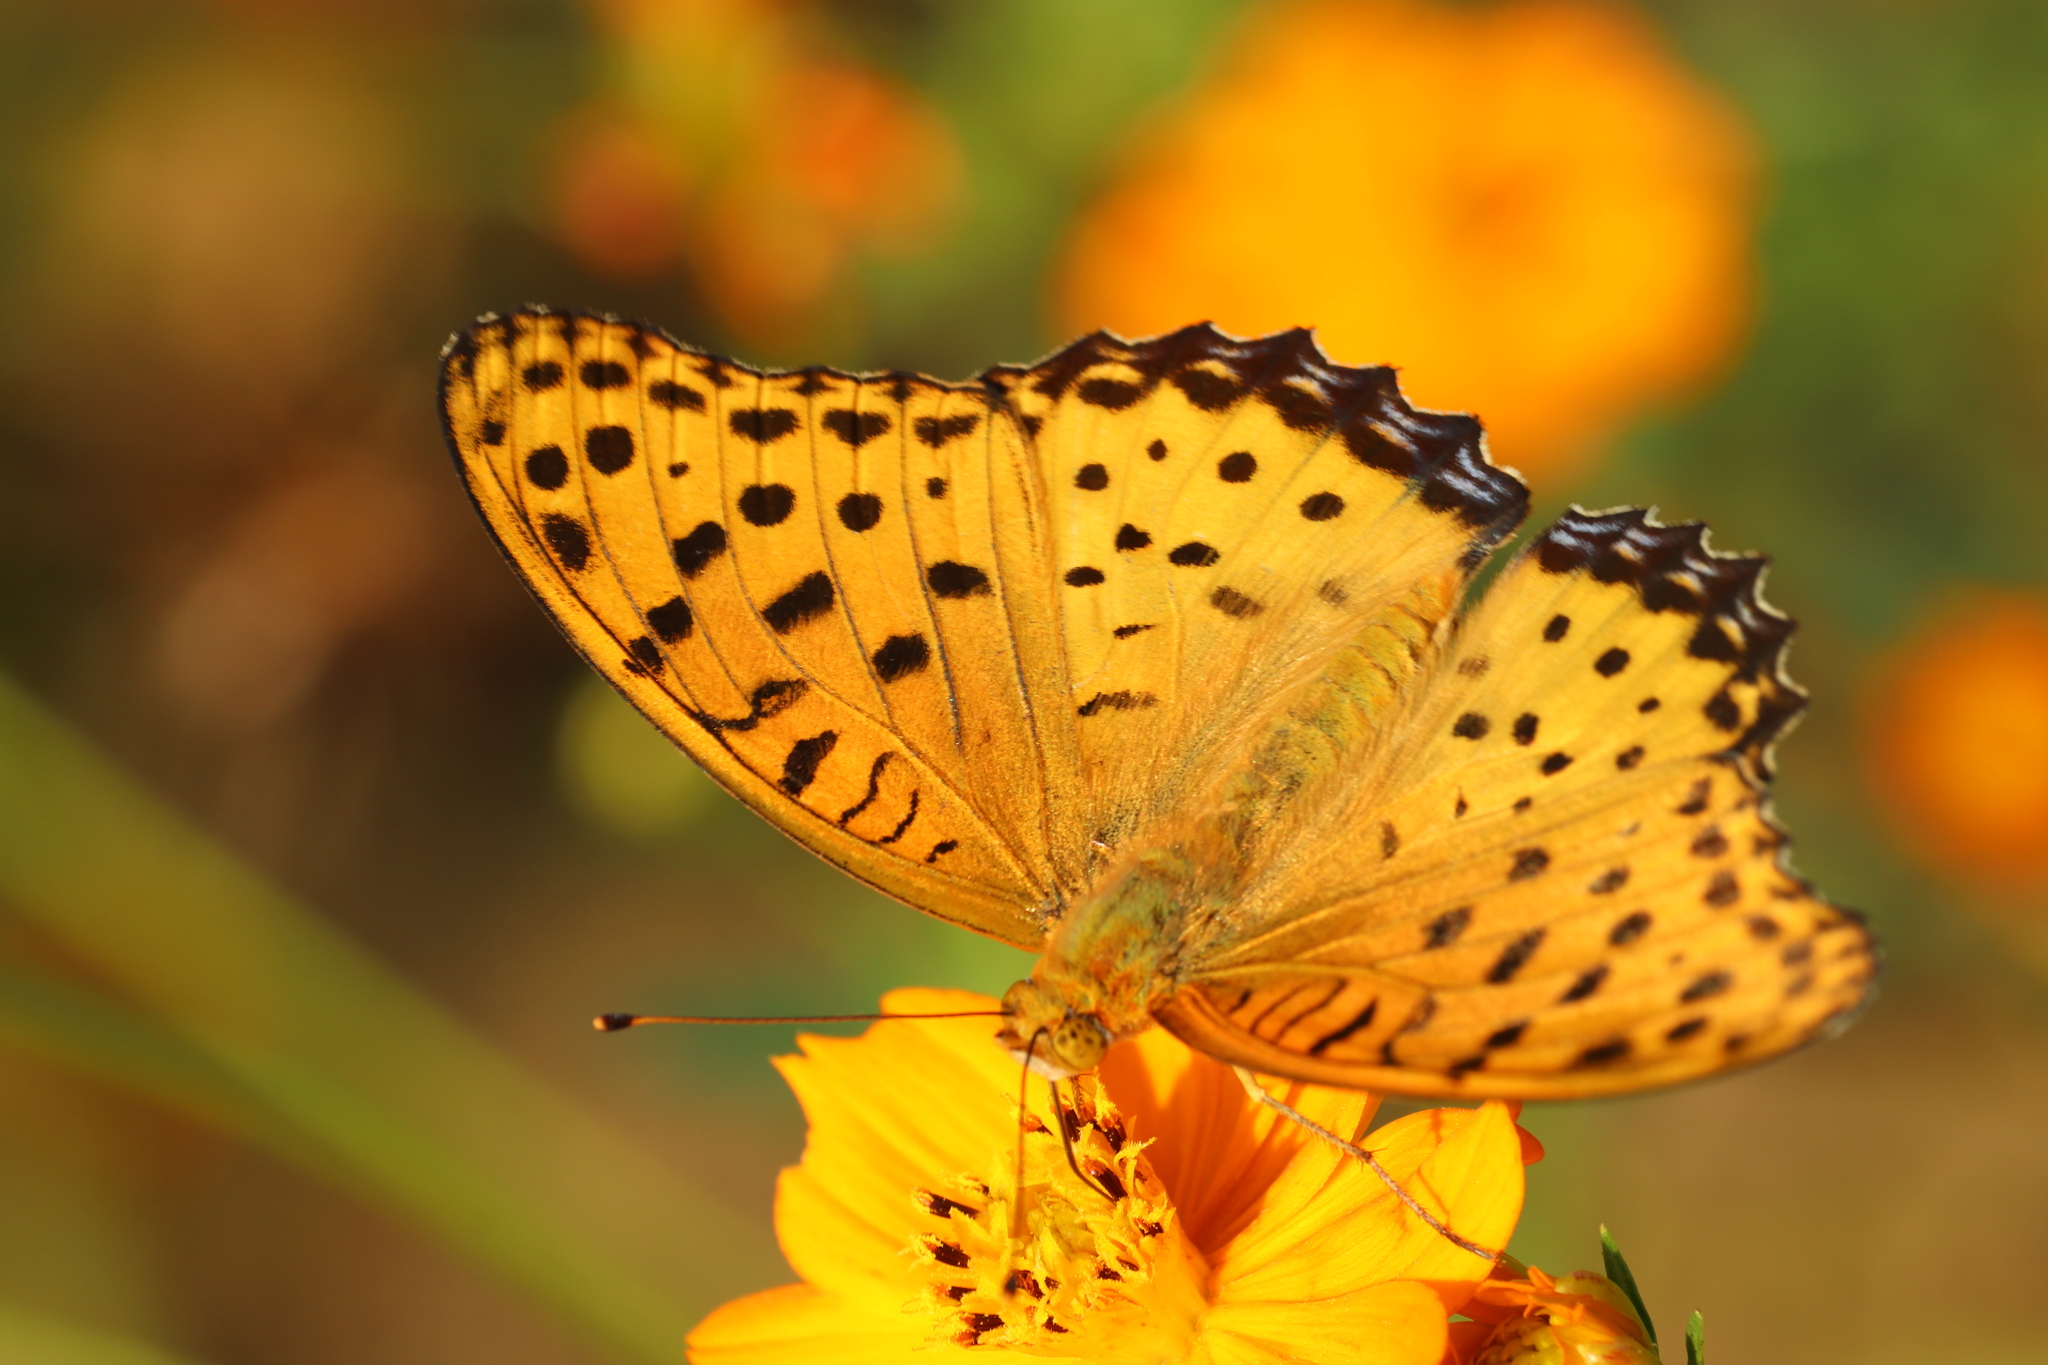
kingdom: Animalia
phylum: Arthropoda
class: Insecta
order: Lepidoptera
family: Nymphalidae
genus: Argynnis
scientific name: Argynnis hyperbius
